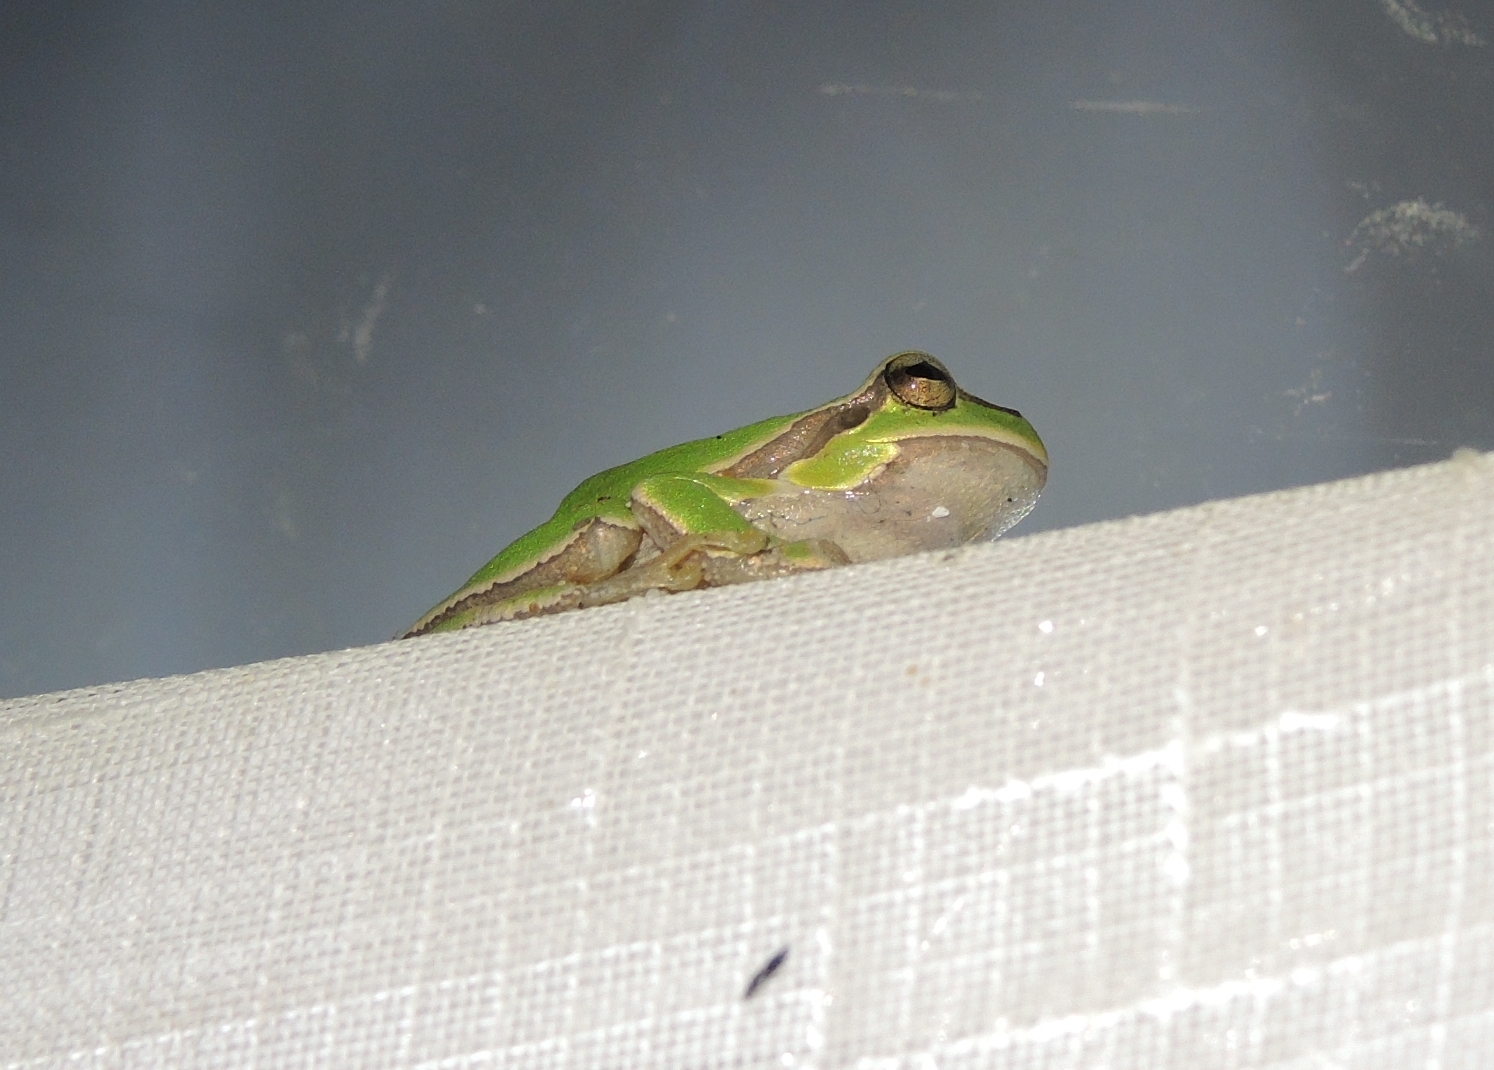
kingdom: Animalia
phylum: Chordata
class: Amphibia
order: Anura
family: Hylidae
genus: Hyla
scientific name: Hyla orientalis
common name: Caucasian treefrog
